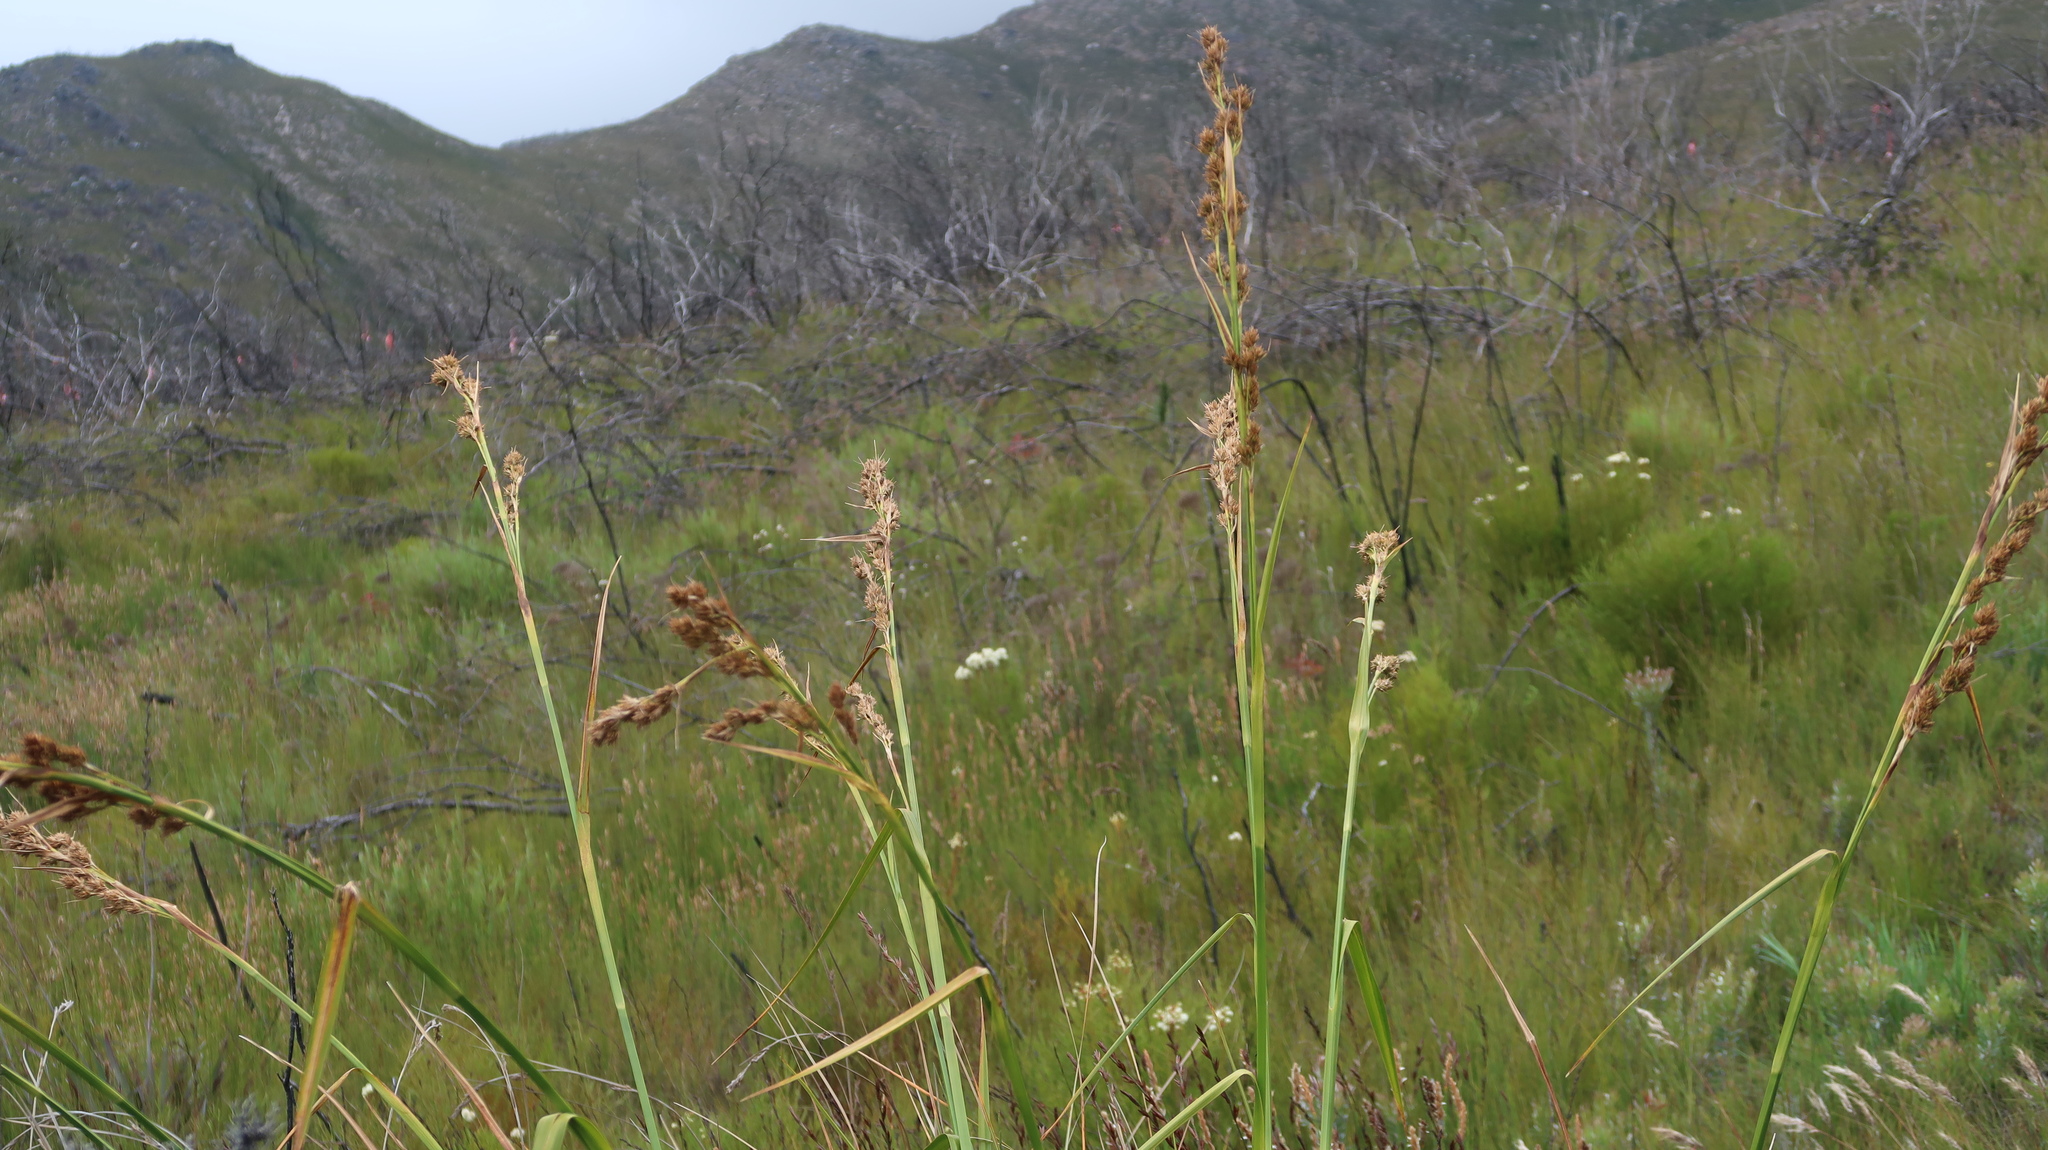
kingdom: Plantae
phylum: Tracheophyta
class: Liliopsida
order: Poales
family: Cyperaceae
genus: Carpha
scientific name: Carpha glomerata
